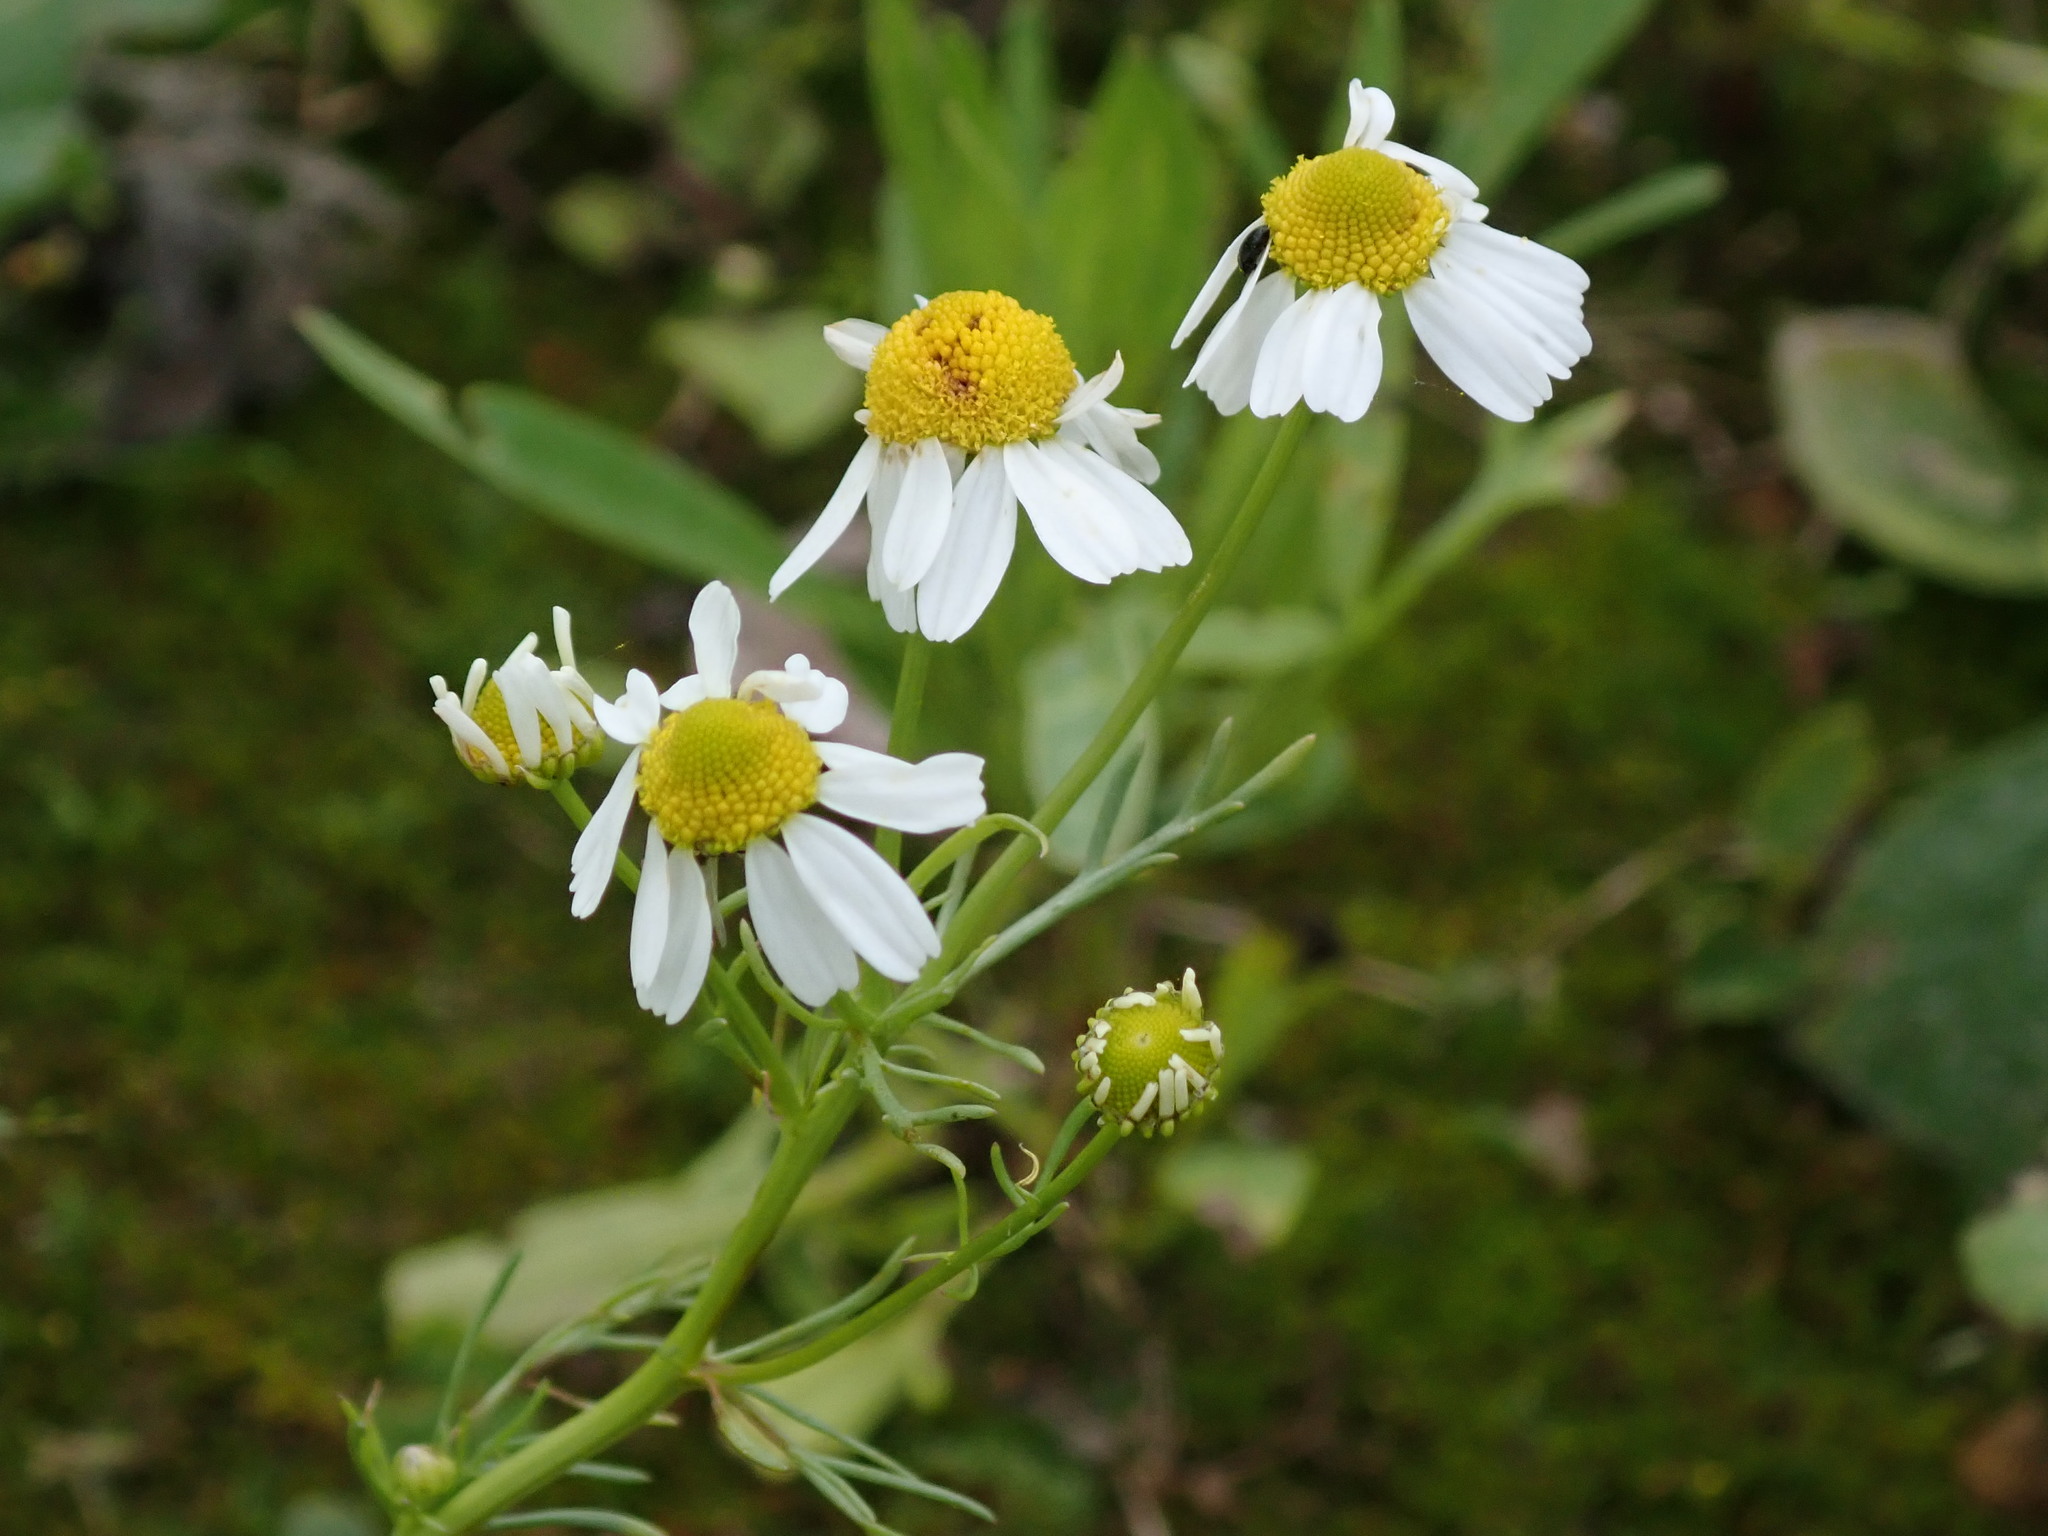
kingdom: Plantae
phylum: Tracheophyta
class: Magnoliopsida
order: Asterales
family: Asteraceae
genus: Matricaria
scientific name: Matricaria chamomilla
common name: Scented mayweed
